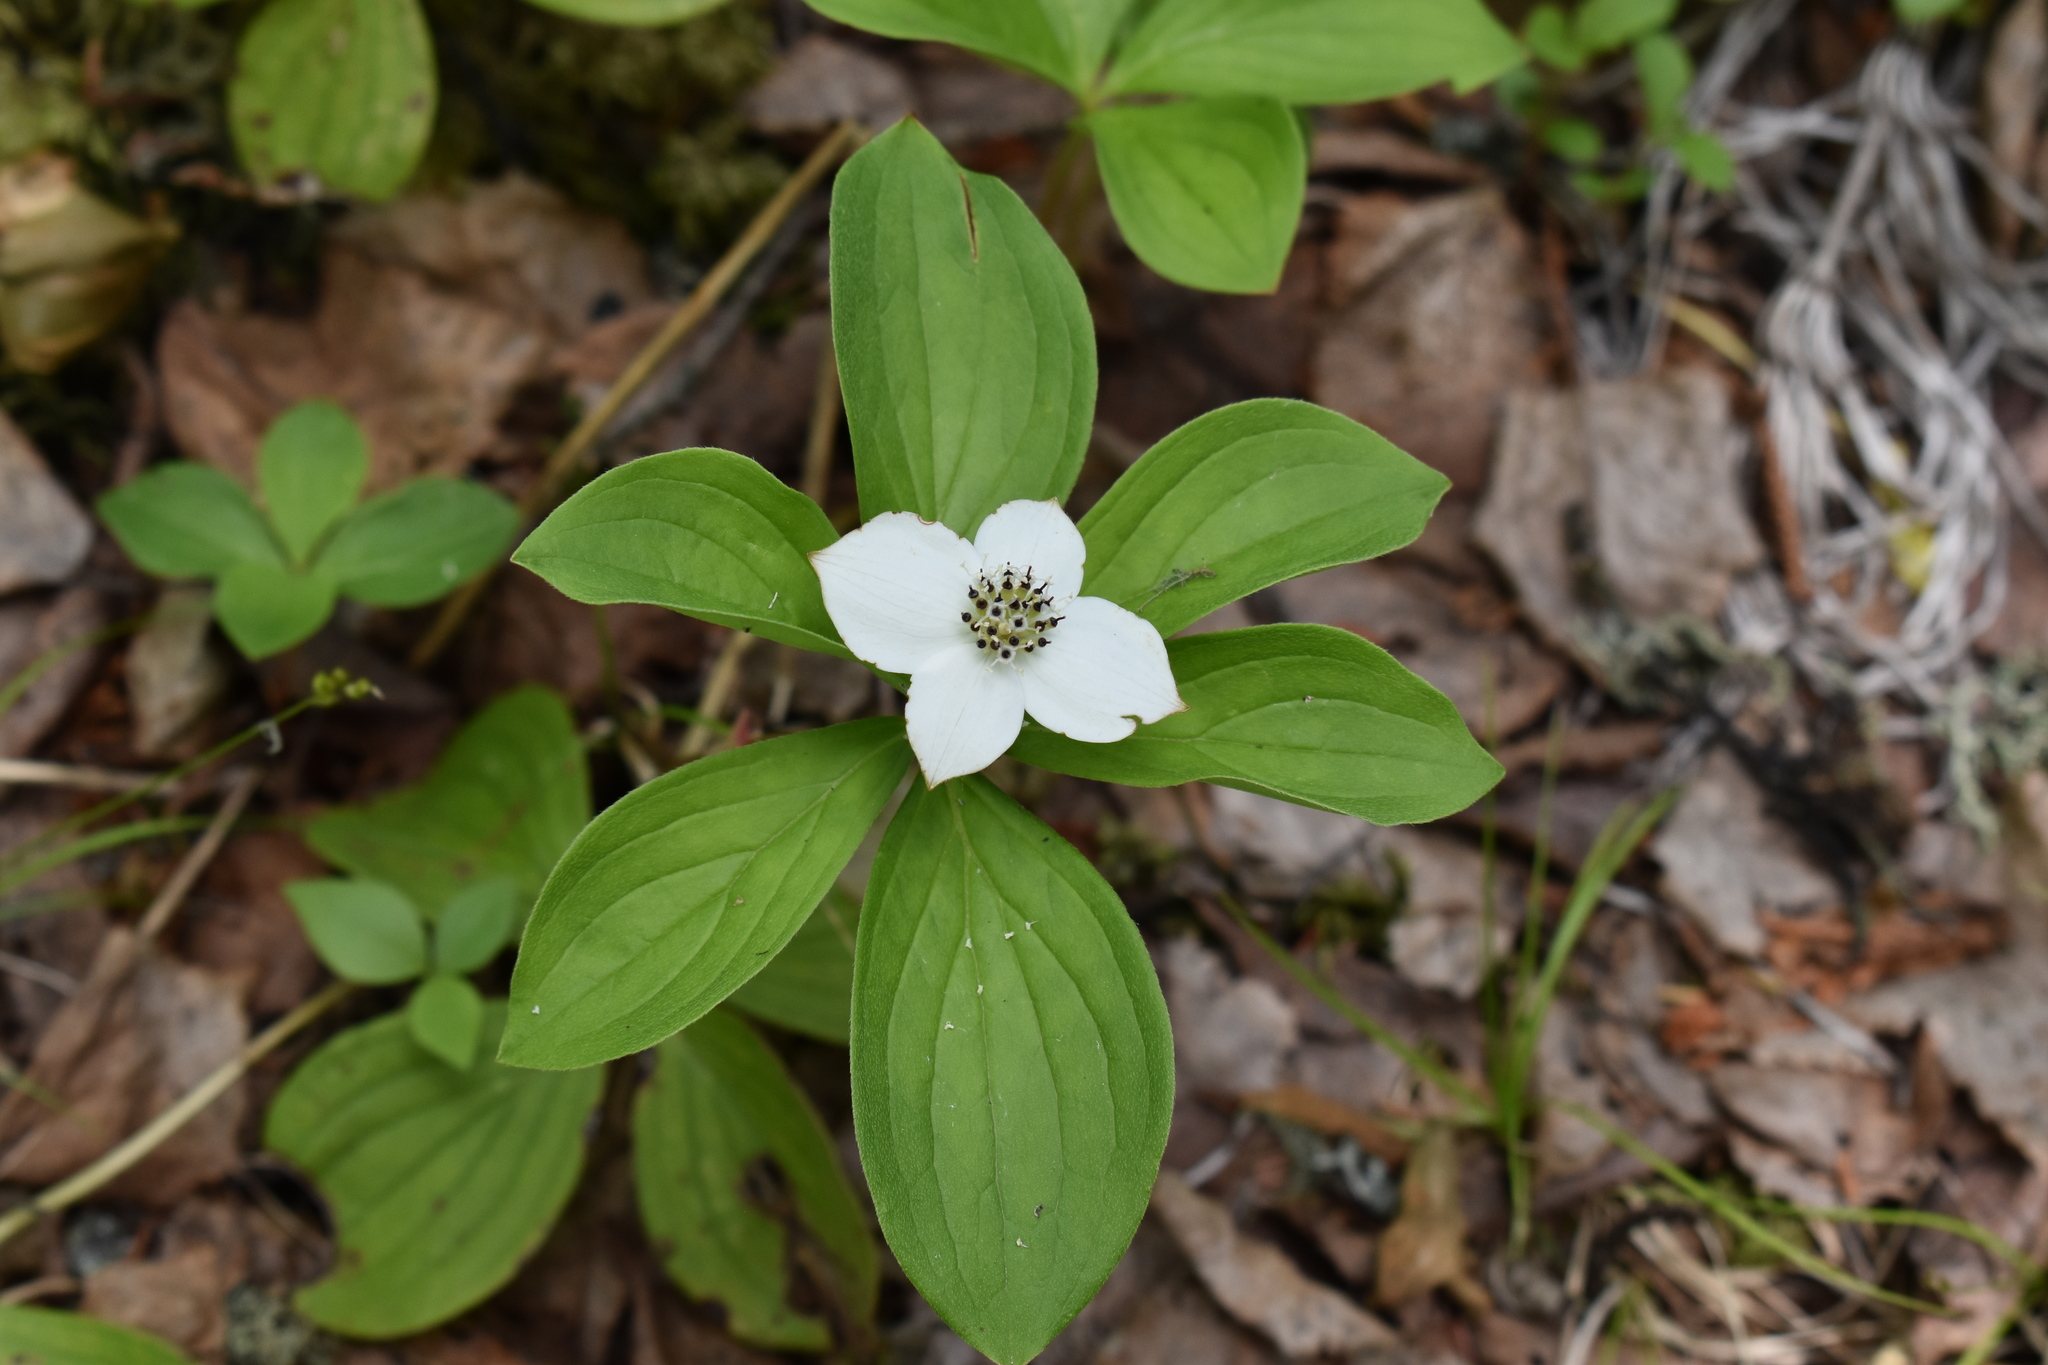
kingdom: Plantae
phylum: Tracheophyta
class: Magnoliopsida
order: Cornales
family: Cornaceae
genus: Cornus
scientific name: Cornus canadensis
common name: Creeping dogwood
